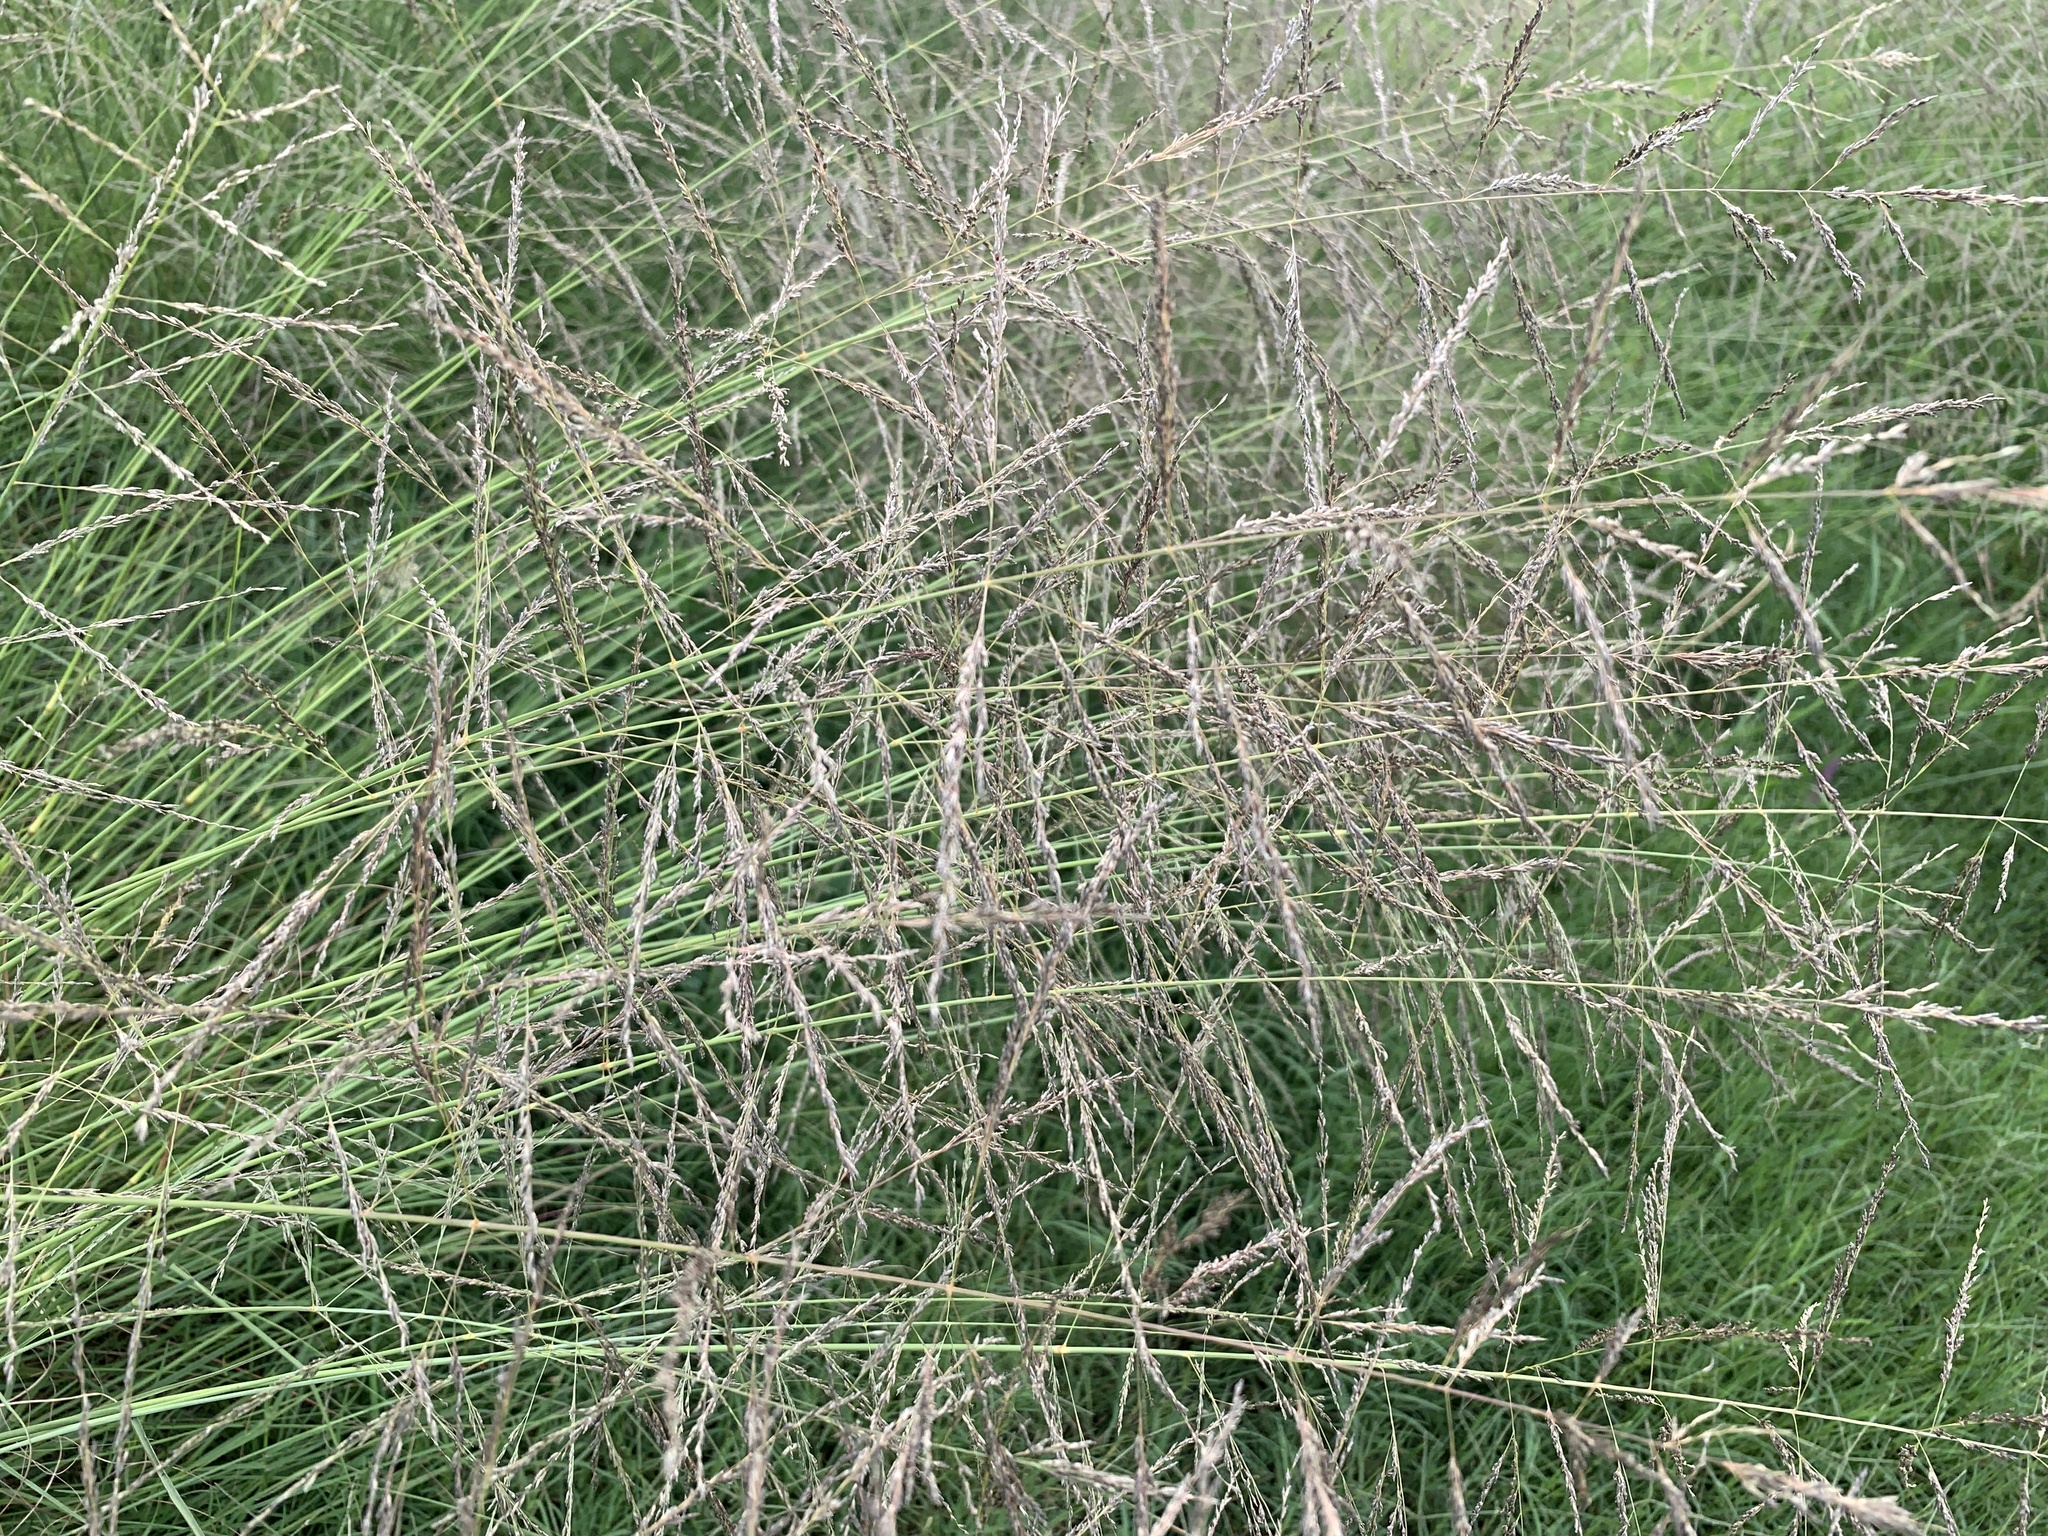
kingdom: Plantae
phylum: Tracheophyta
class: Liliopsida
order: Poales
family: Poaceae
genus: Eragrostis
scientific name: Eragrostis curvula
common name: African love-grass
